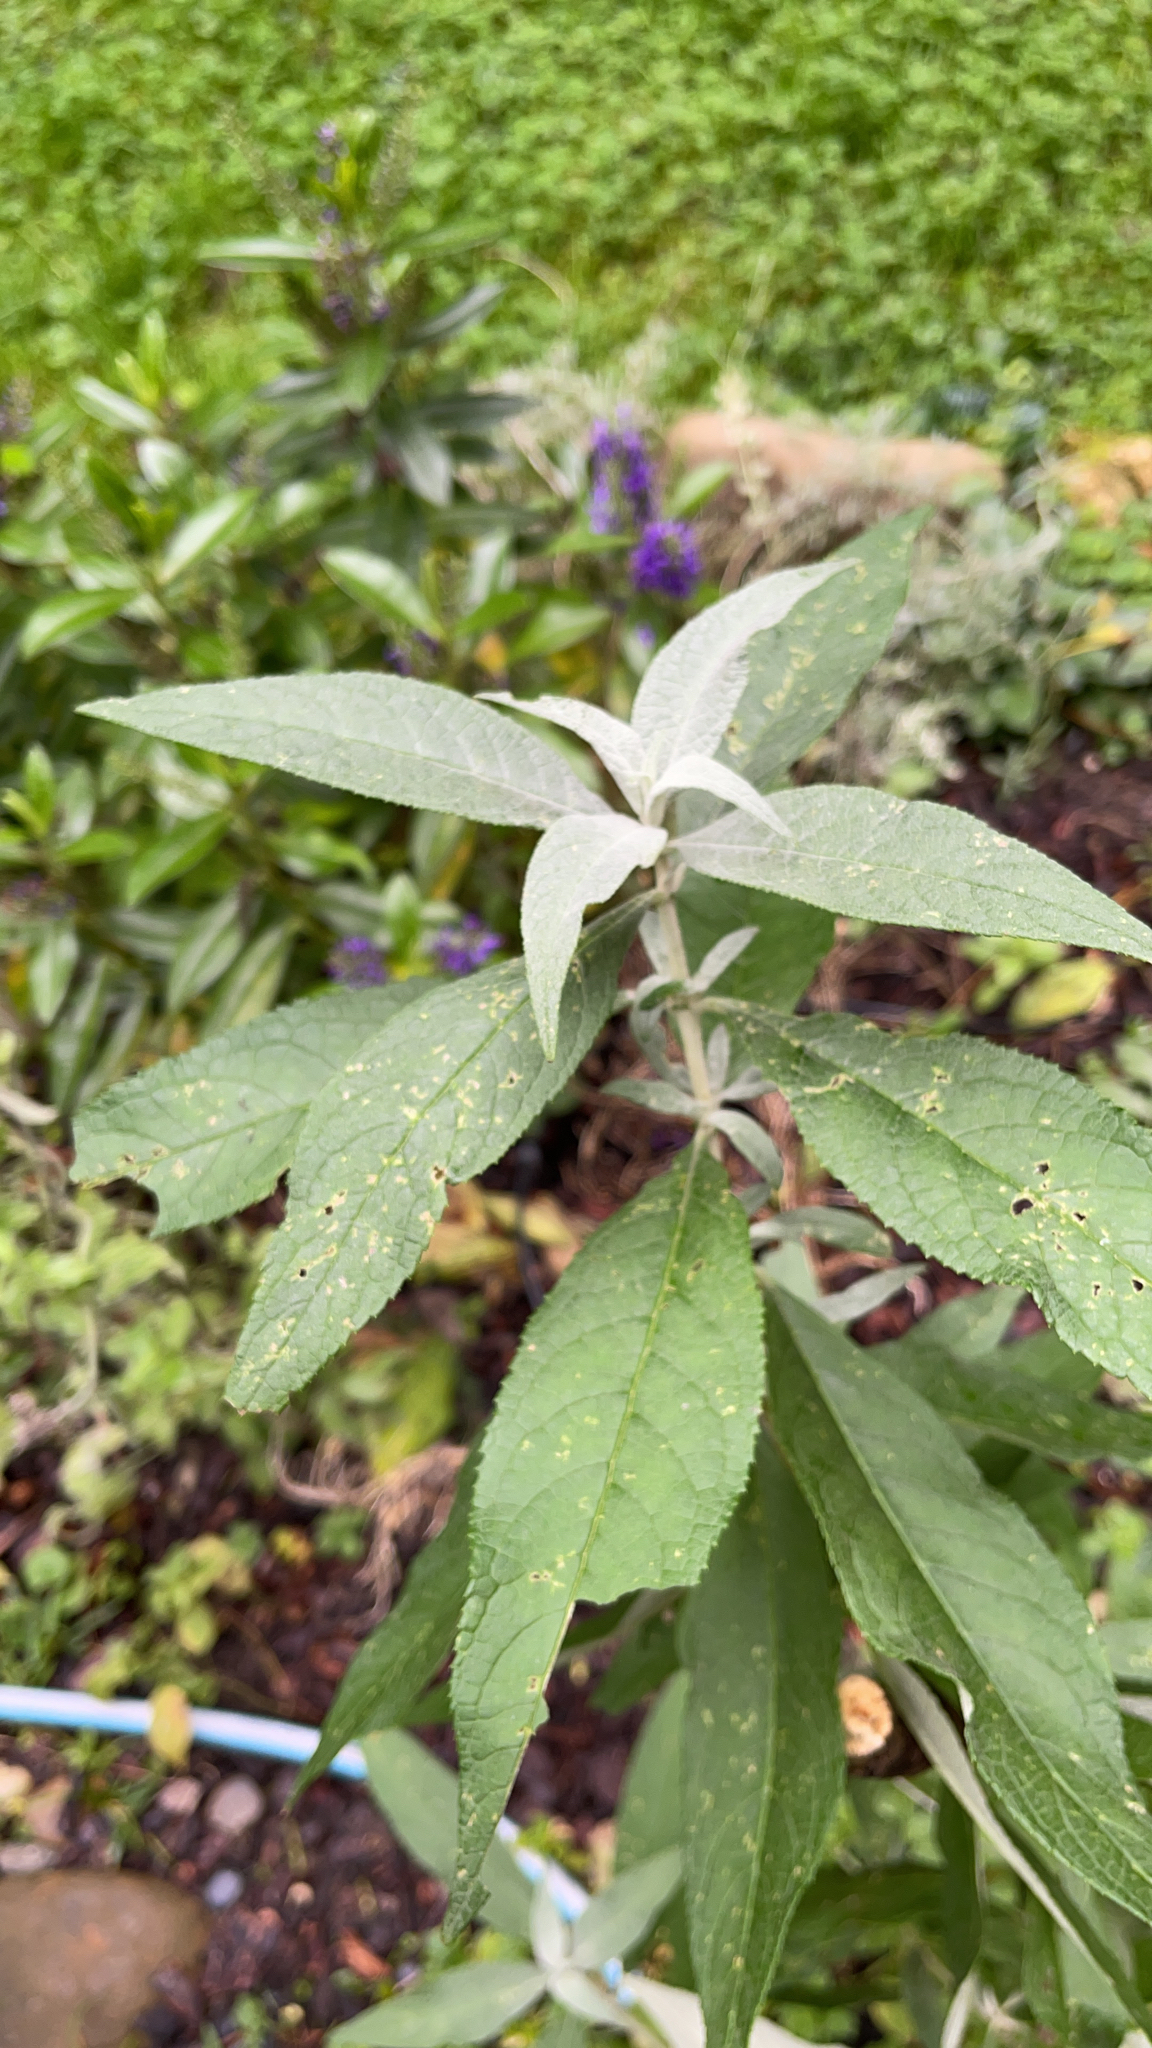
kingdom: Plantae
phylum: Tracheophyta
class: Magnoliopsida
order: Lamiales
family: Scrophulariaceae
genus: Buddleja
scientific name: Buddleja davidii
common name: Butterfly-bush
